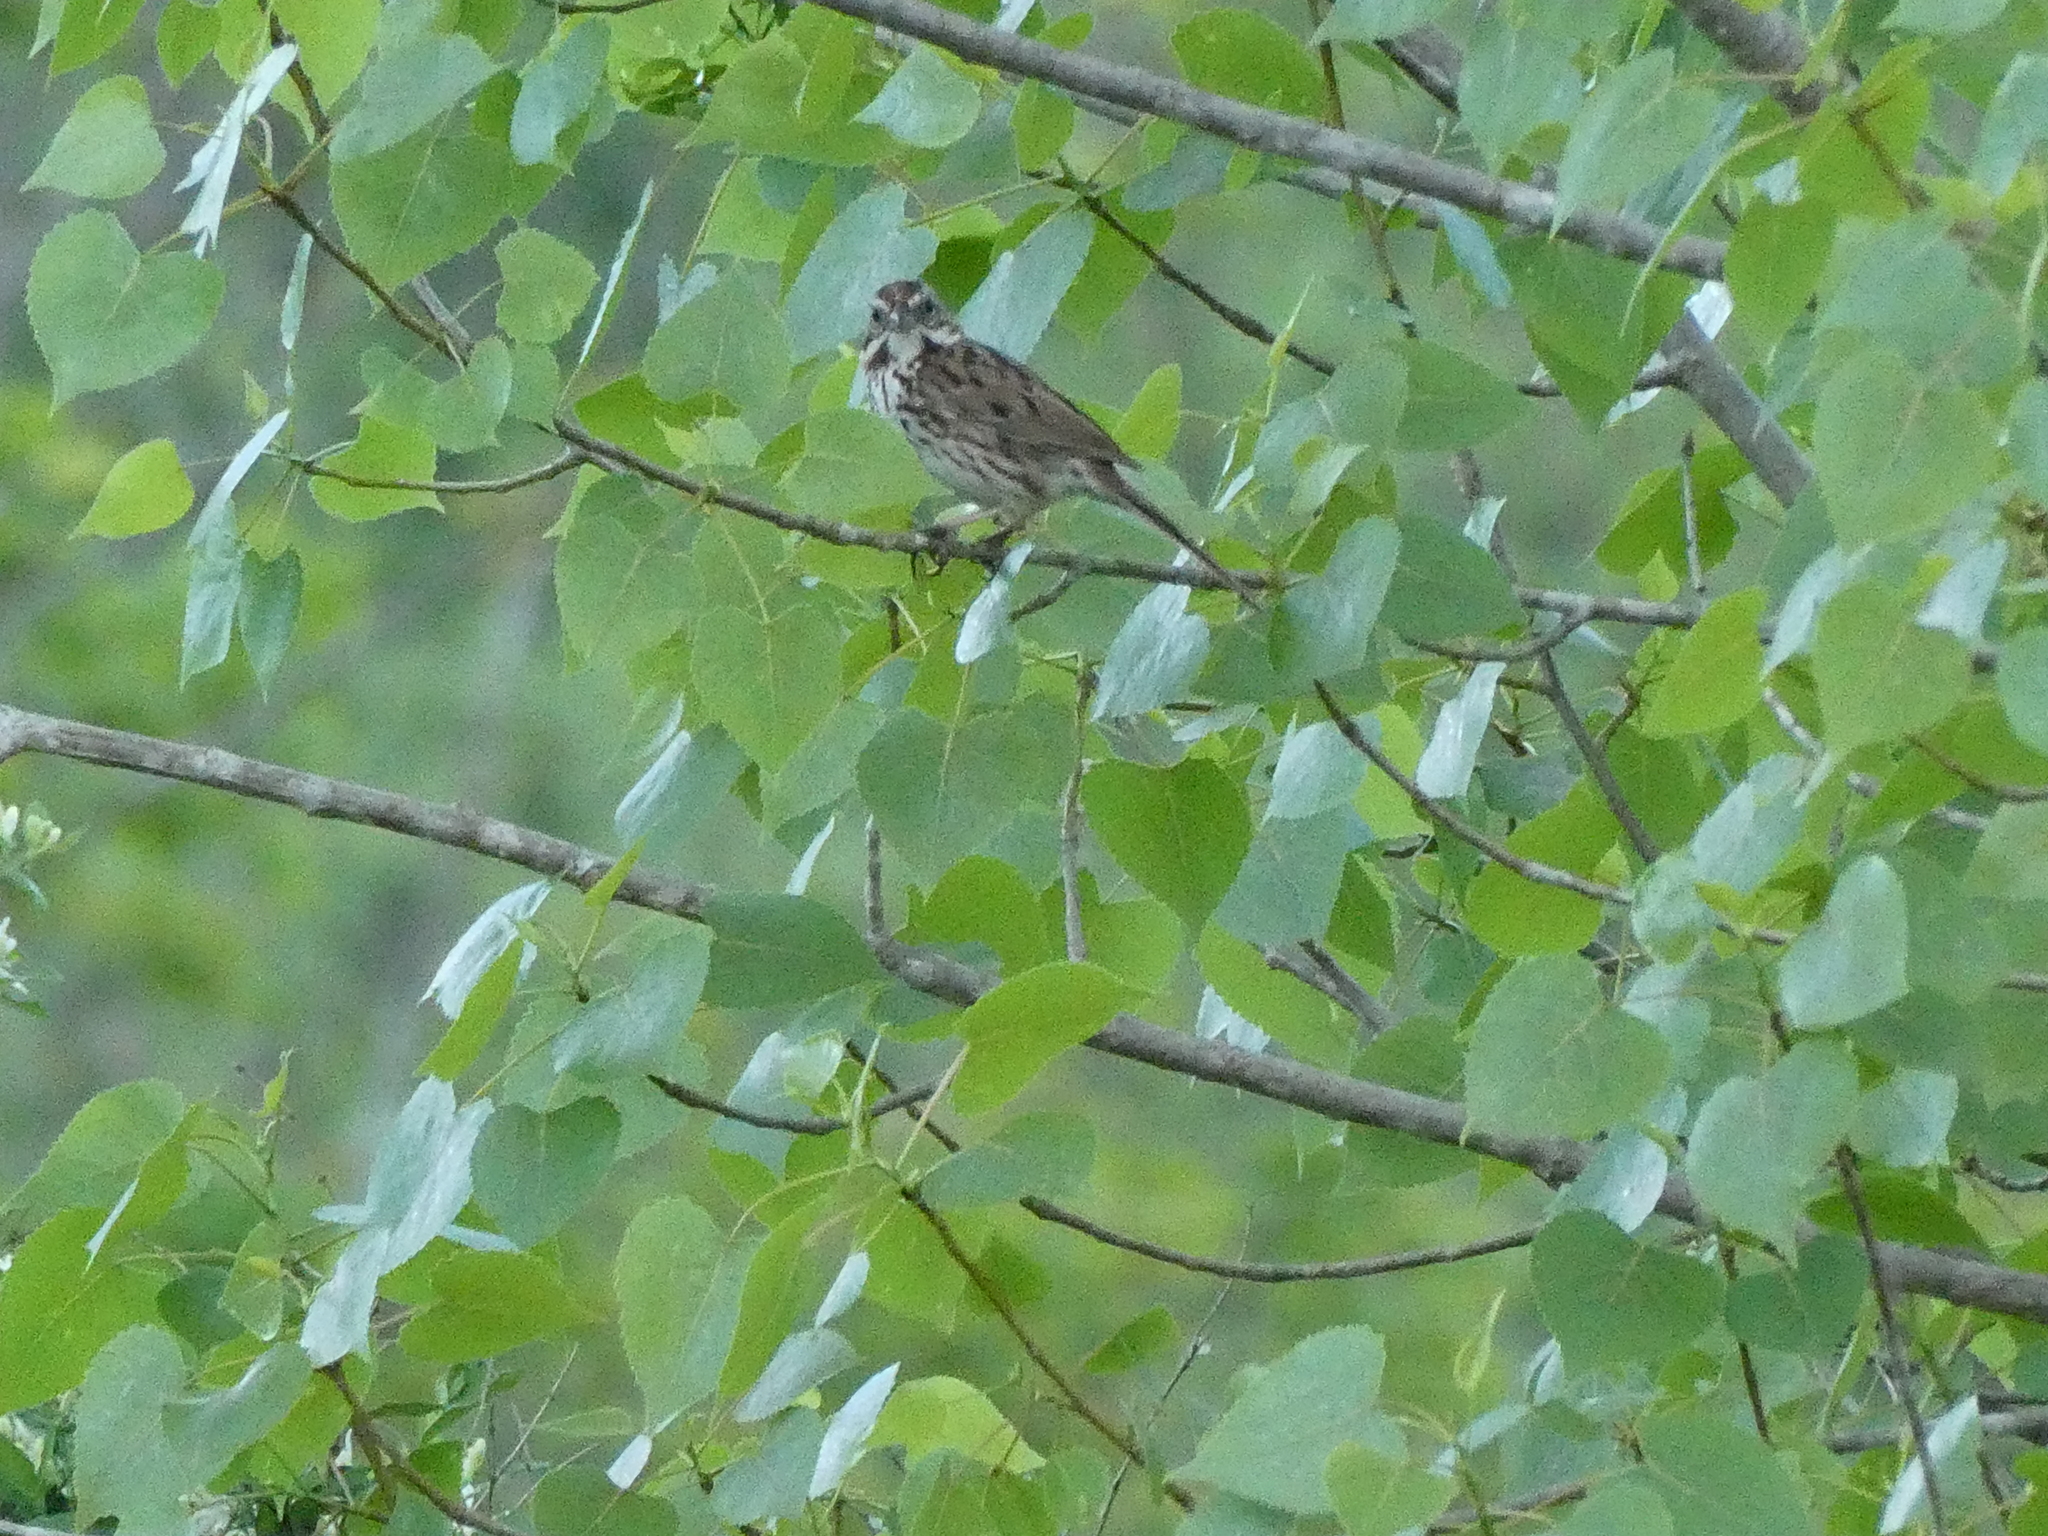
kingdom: Animalia
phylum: Chordata
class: Aves
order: Passeriformes
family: Passerellidae
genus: Melospiza
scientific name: Melospiza melodia
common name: Song sparrow
